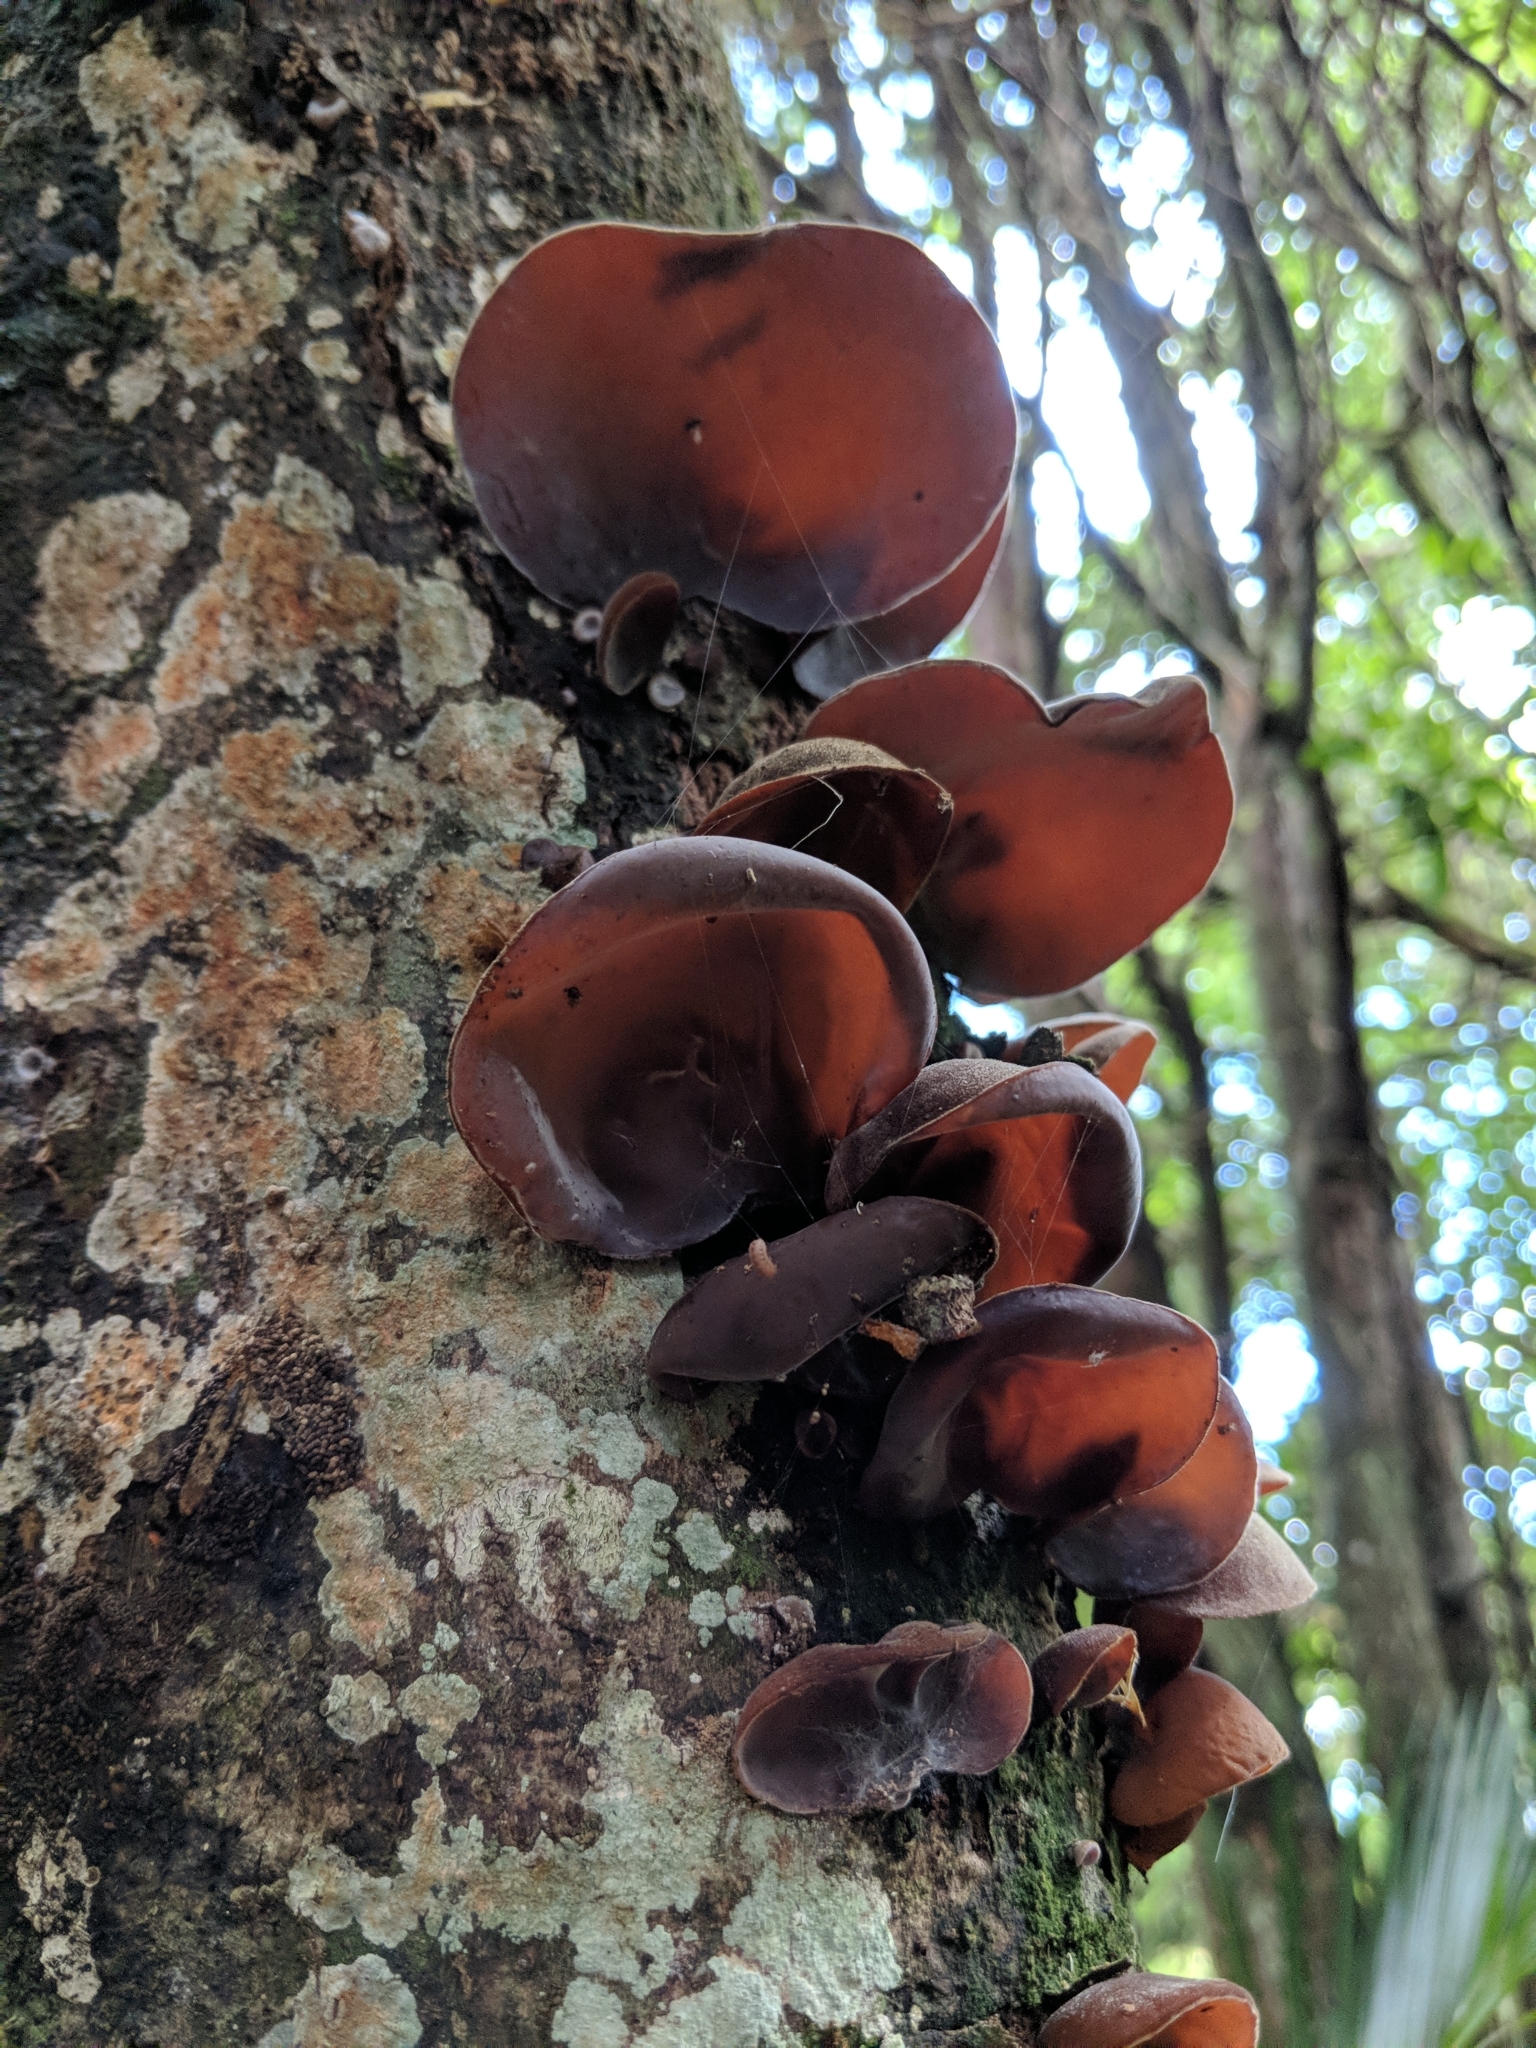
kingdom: Fungi
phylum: Basidiomycota
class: Agaricomycetes
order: Auriculariales
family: Auriculariaceae
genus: Auricularia
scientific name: Auricularia cornea
